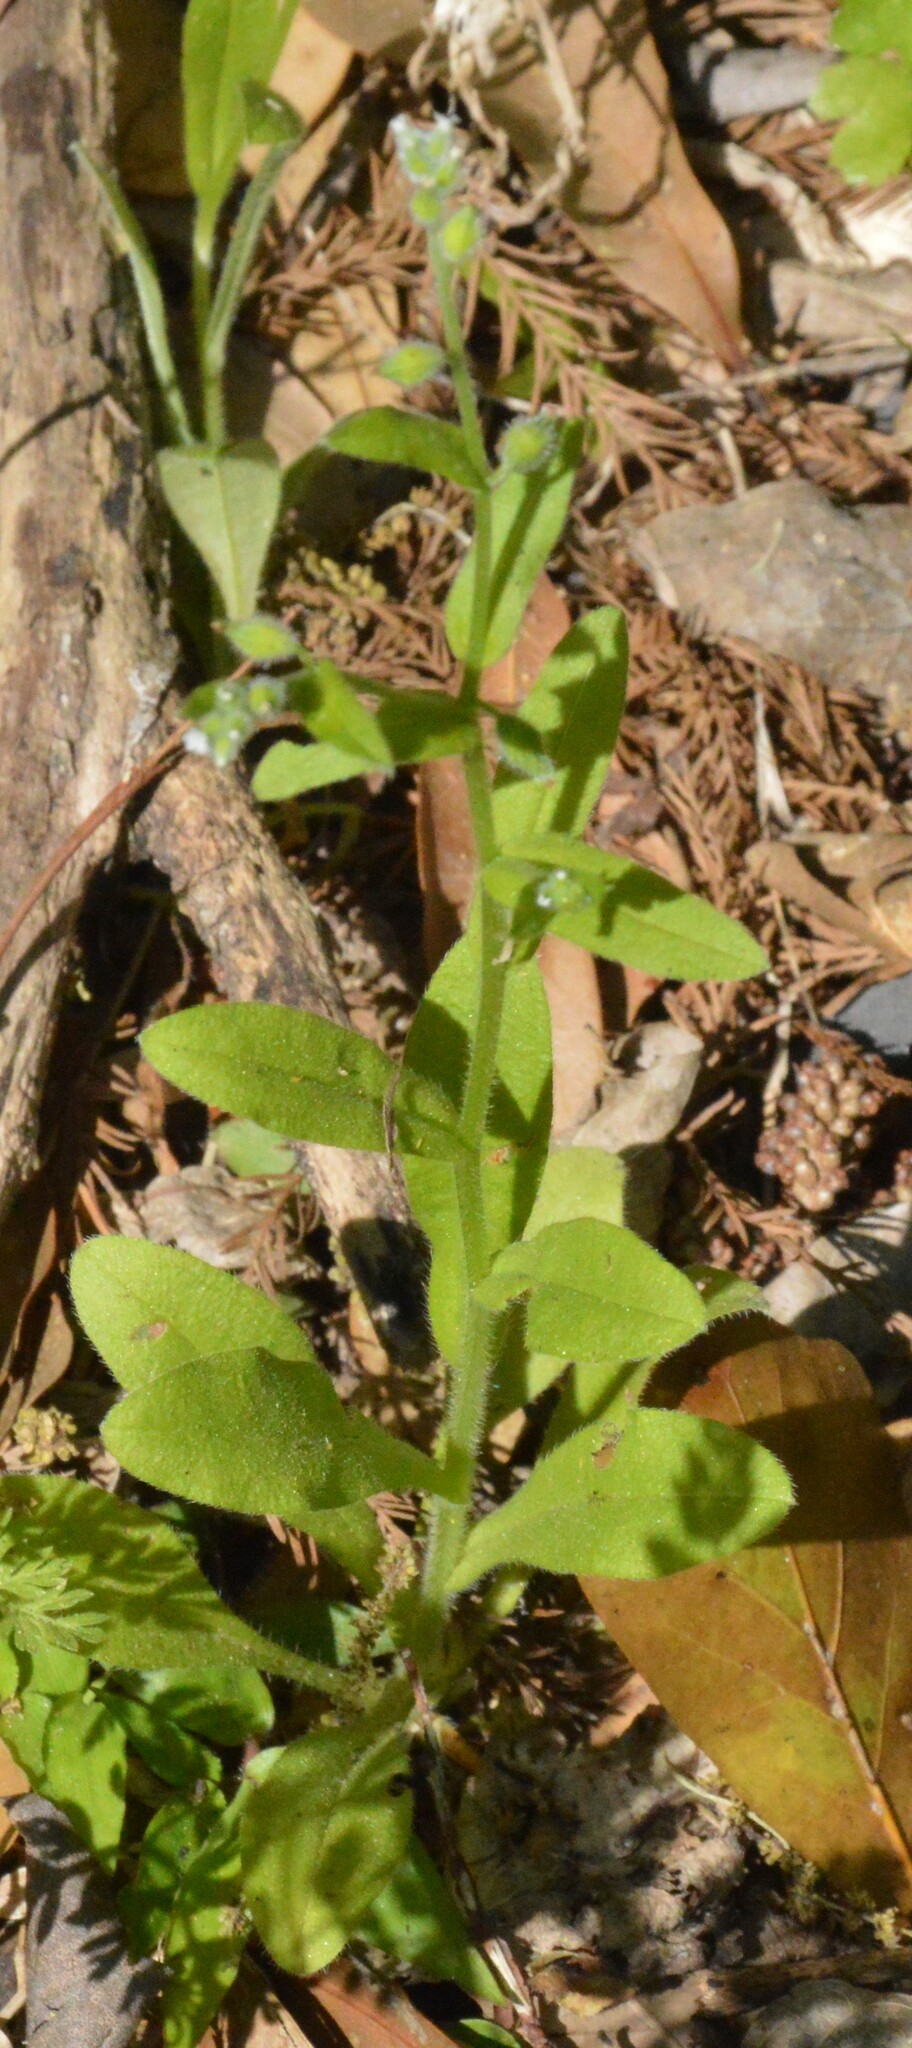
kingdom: Plantae
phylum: Tracheophyta
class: Magnoliopsida
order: Boraginales
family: Boraginaceae
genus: Myosotis
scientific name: Myosotis macrosperma
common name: Large-seed forget-me-not
